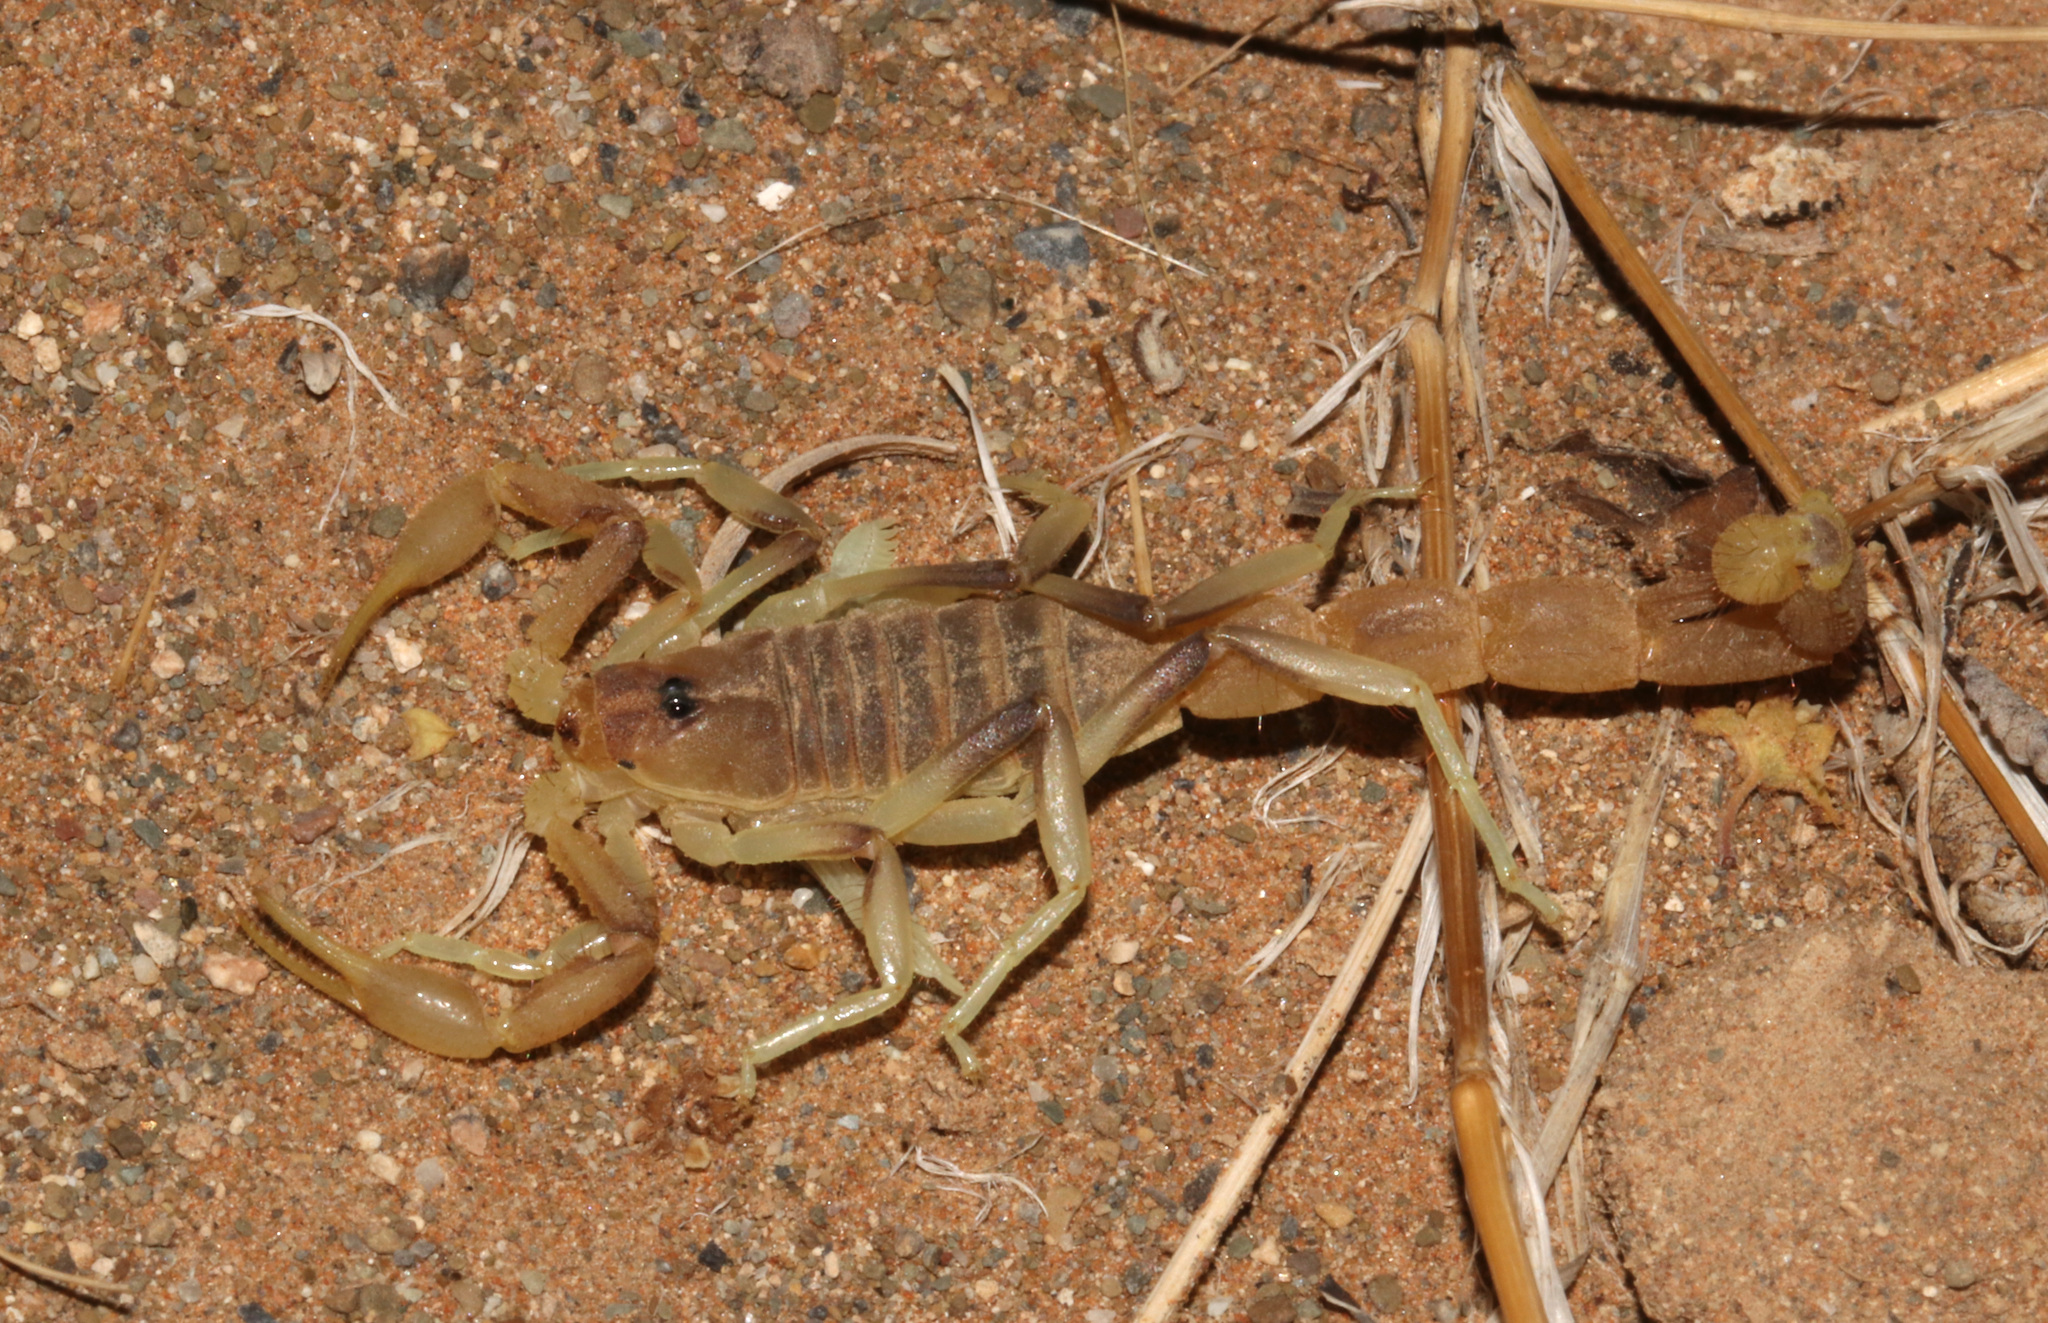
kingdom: Animalia
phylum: Arthropoda
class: Arachnida
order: Scorpiones
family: Buthidae
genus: Parabuthus
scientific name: Parabuthus brevimanus
